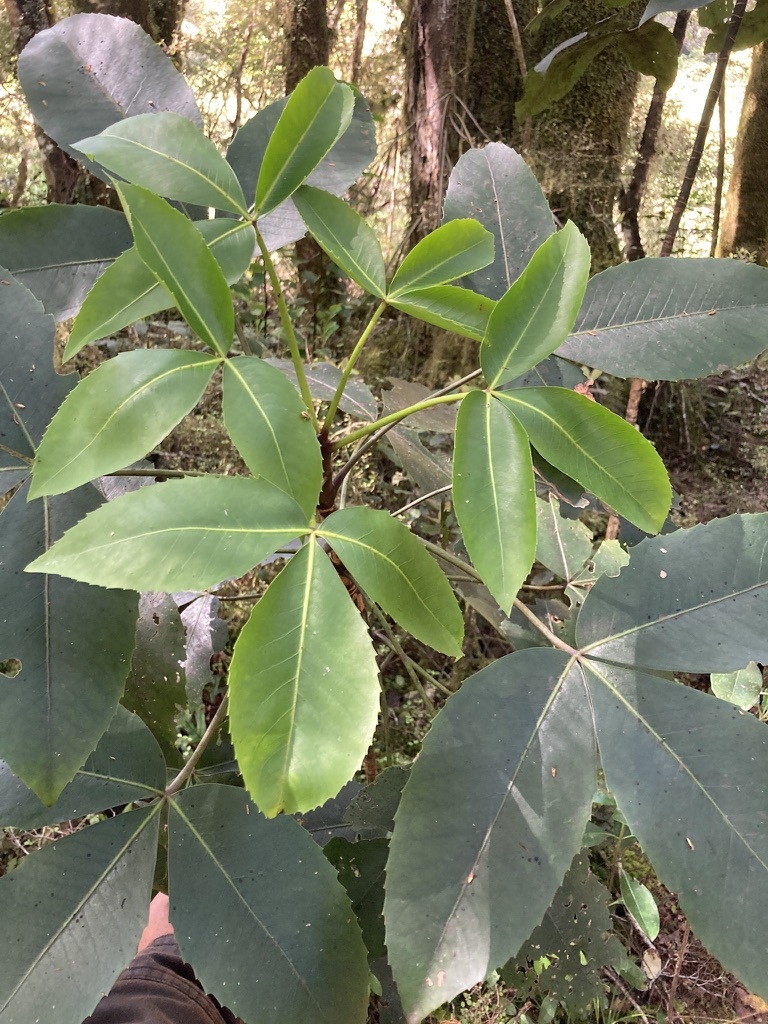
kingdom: Plantae
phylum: Tracheophyta
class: Magnoliopsida
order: Apiales
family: Araliaceae
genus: Neopanax
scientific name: Neopanax colensoi
